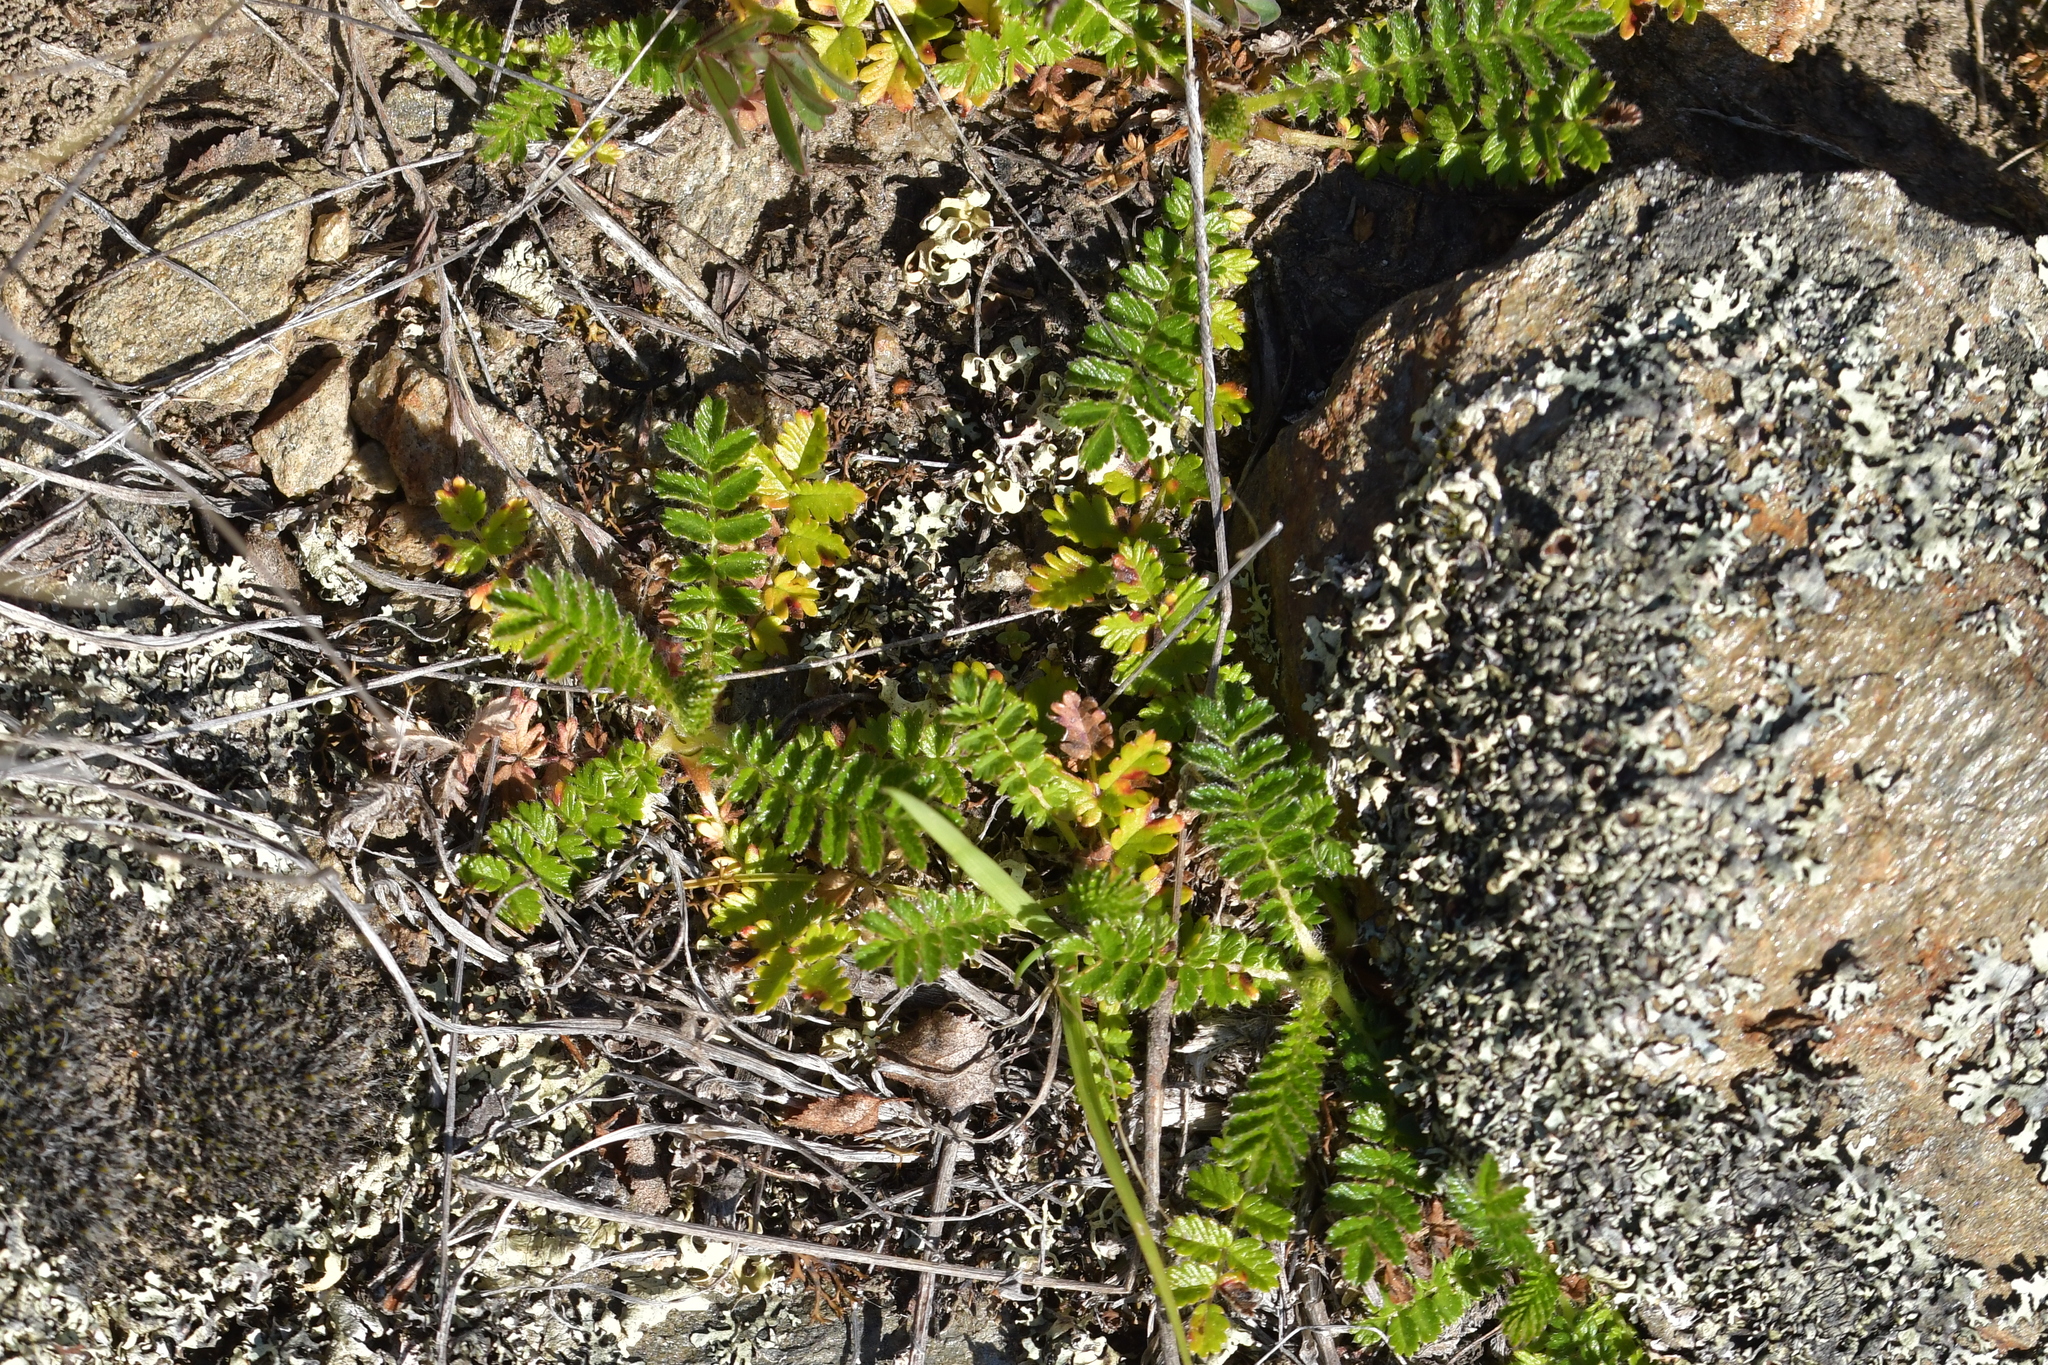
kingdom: Plantae
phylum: Tracheophyta
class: Magnoliopsida
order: Rosales
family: Rosaceae
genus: Acaena
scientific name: Acaena agnipila
